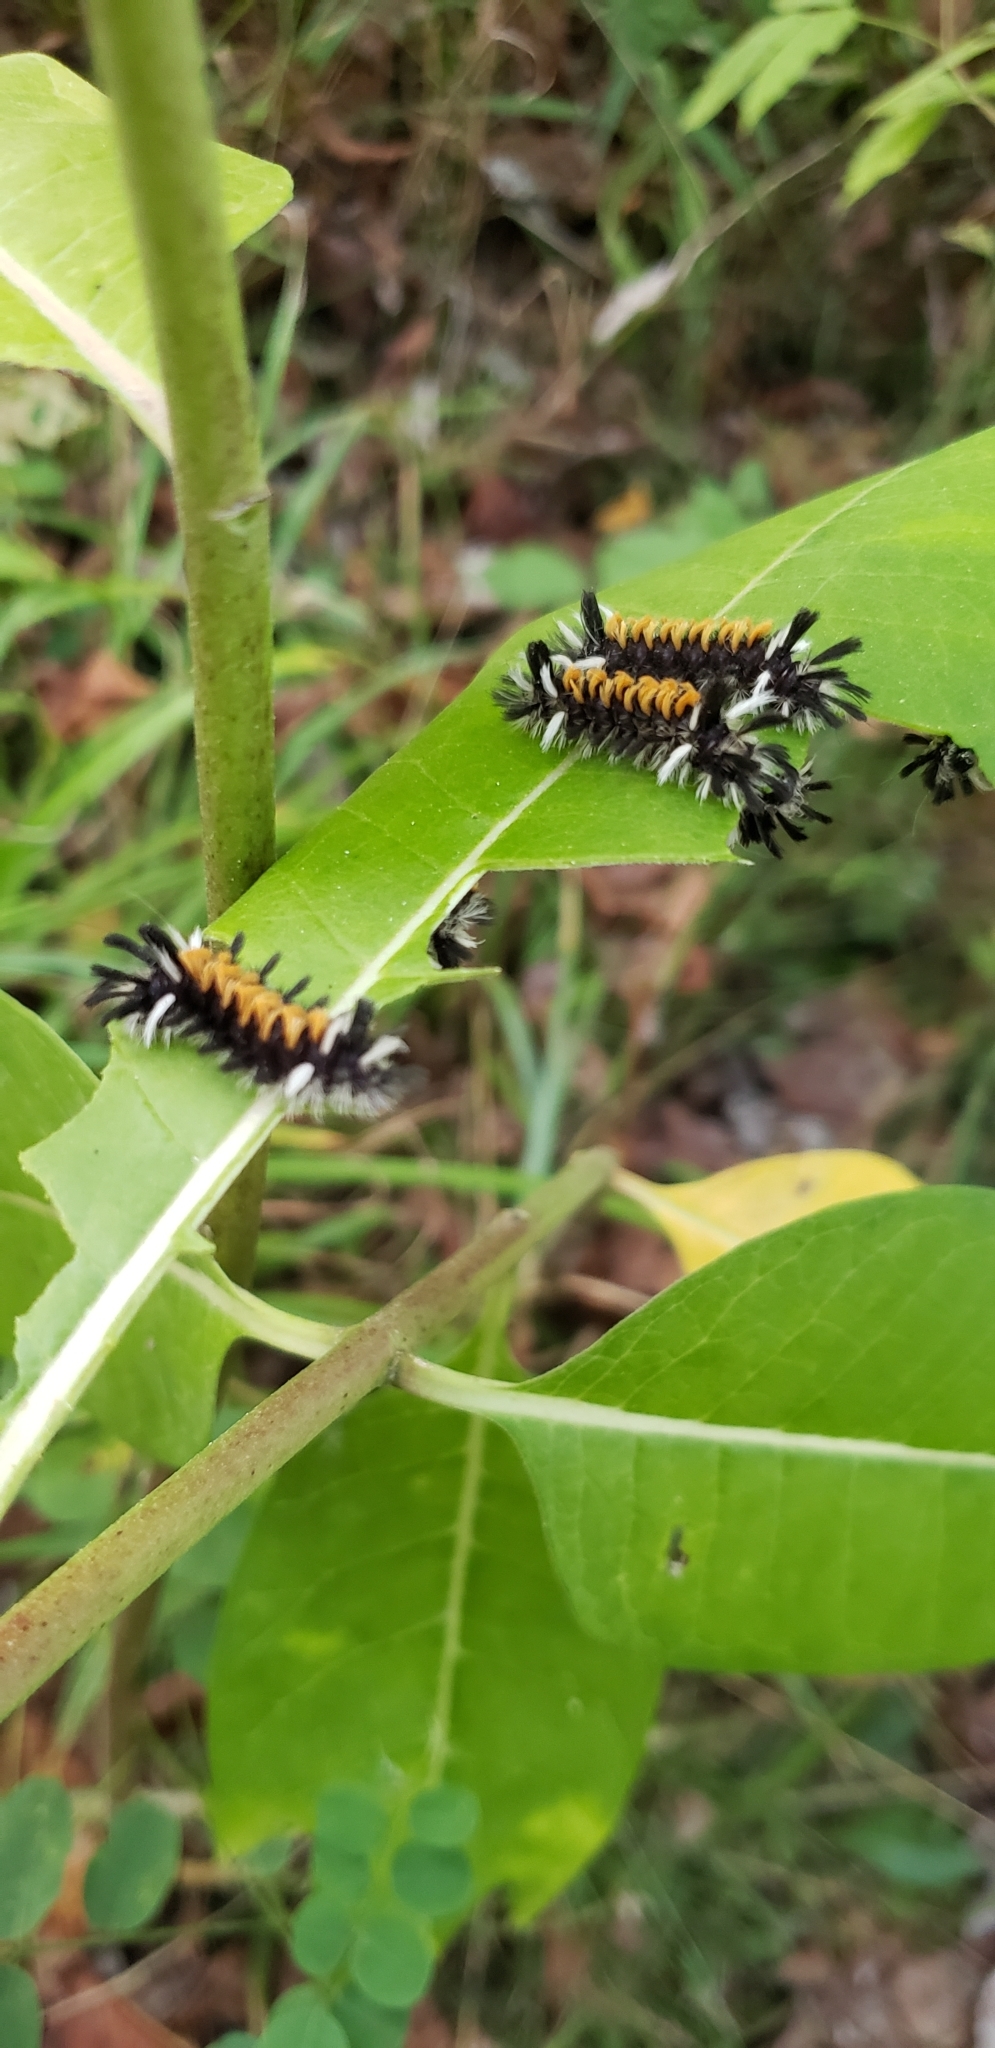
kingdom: Animalia
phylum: Arthropoda
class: Insecta
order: Lepidoptera
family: Erebidae
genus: Euchaetes
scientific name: Euchaetes egle
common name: Milkweed tussock moth
